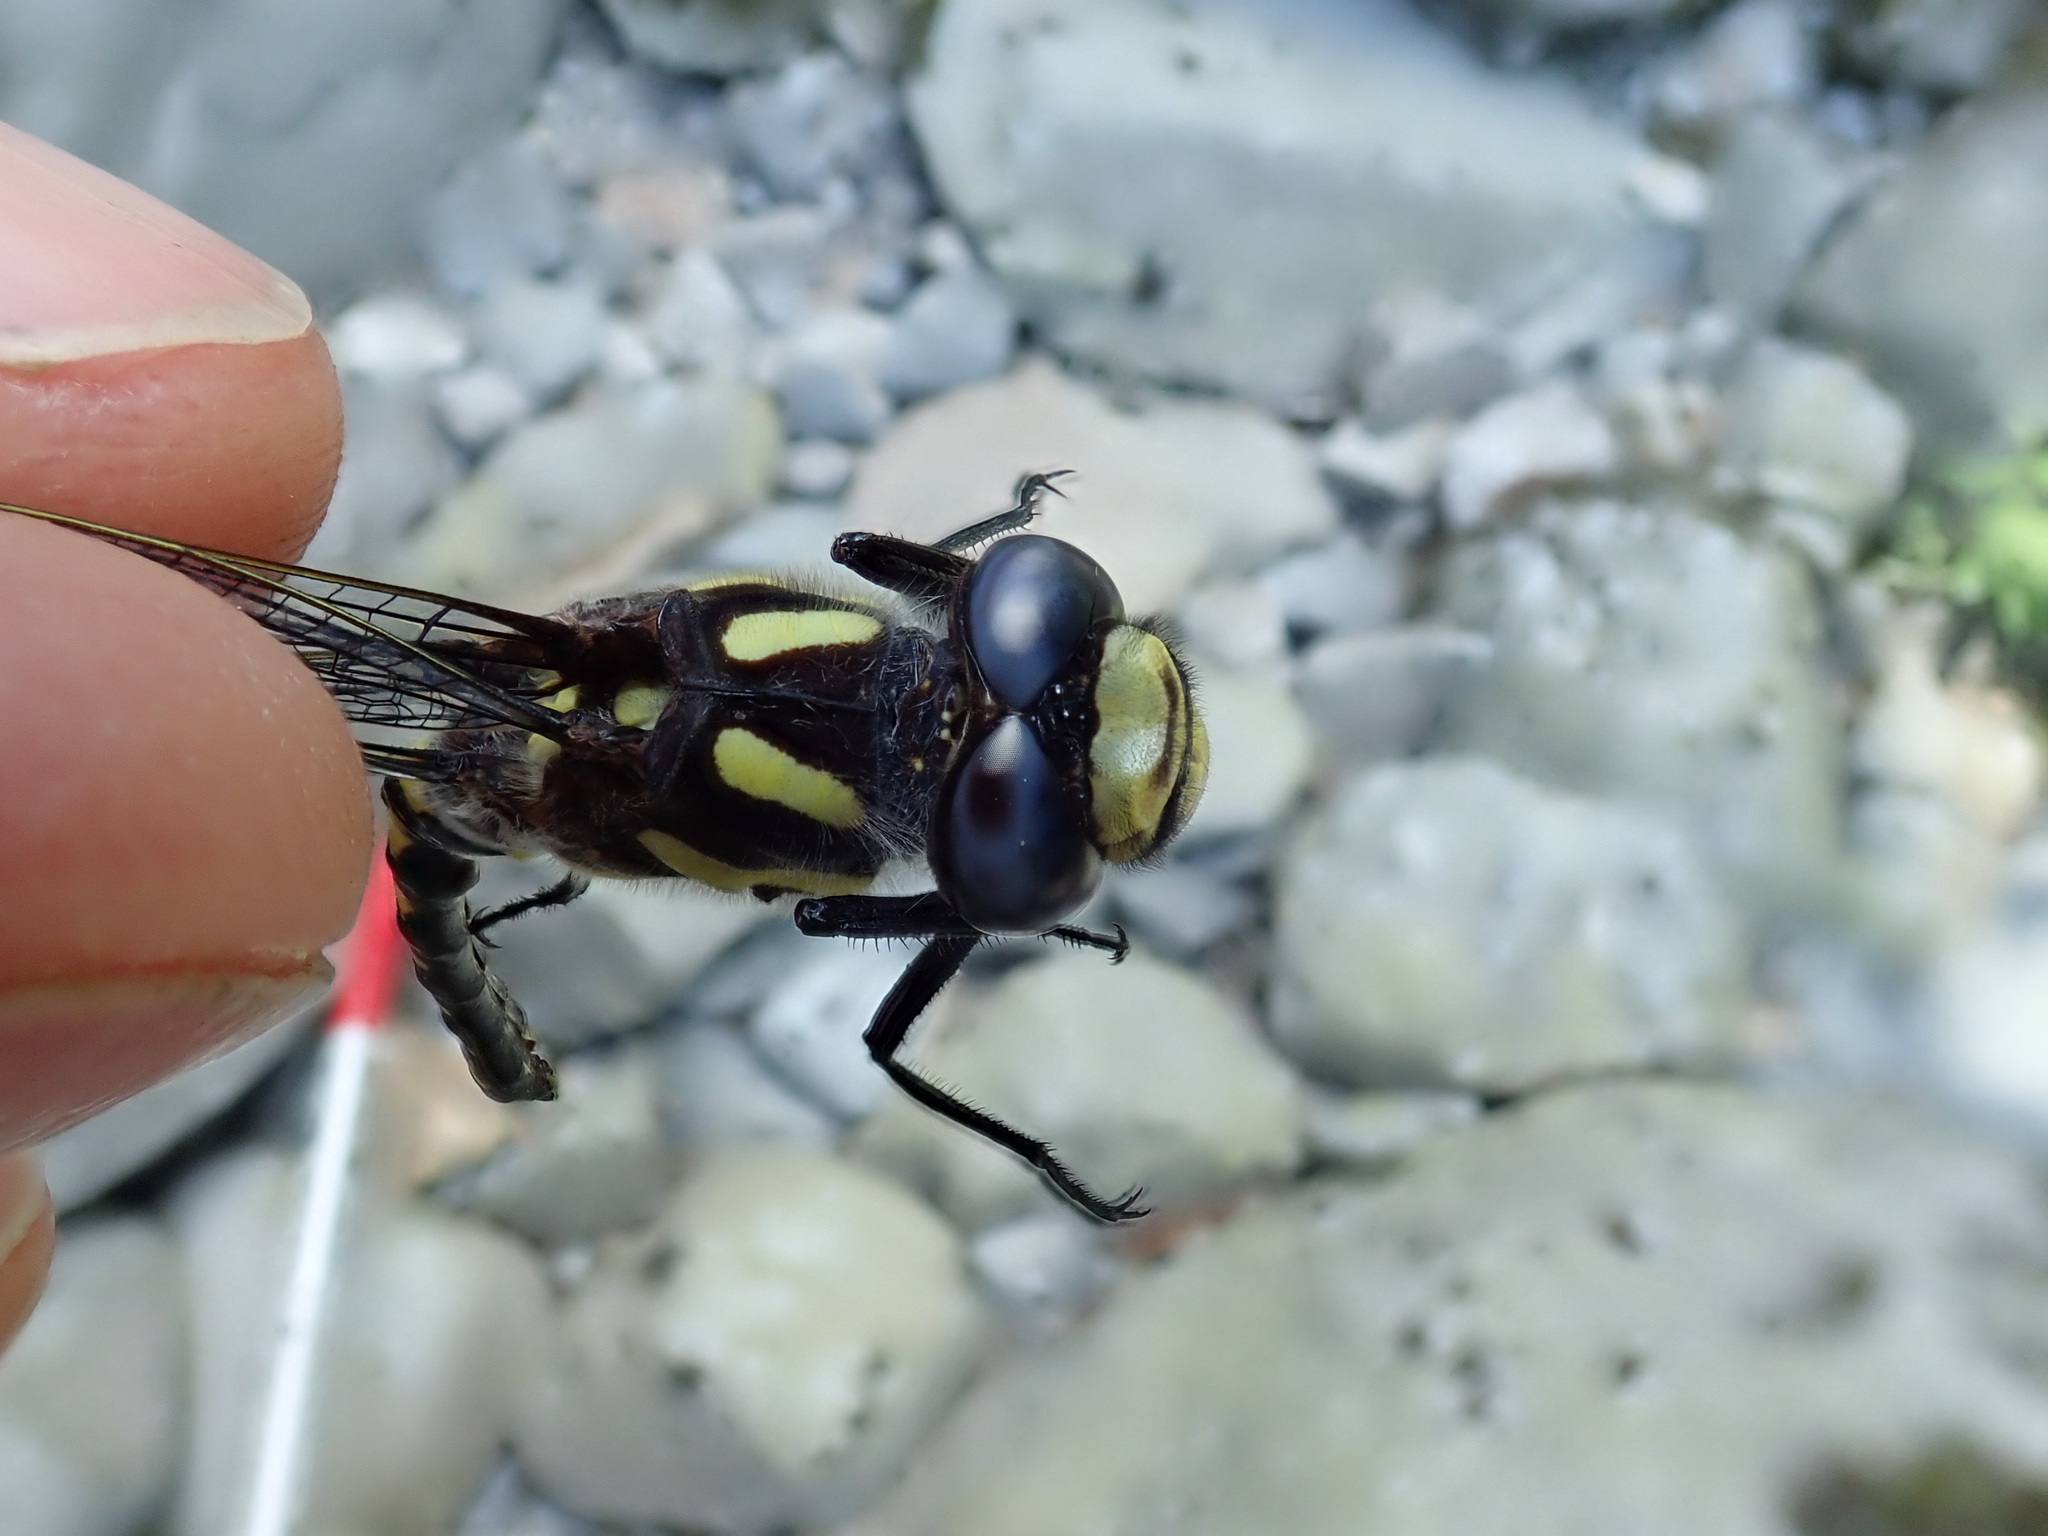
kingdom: Animalia
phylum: Arthropoda
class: Insecta
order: Odonata
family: Cordulegastridae
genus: Cordulegaster
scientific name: Cordulegaster dorsalis
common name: Pacific spiketail
